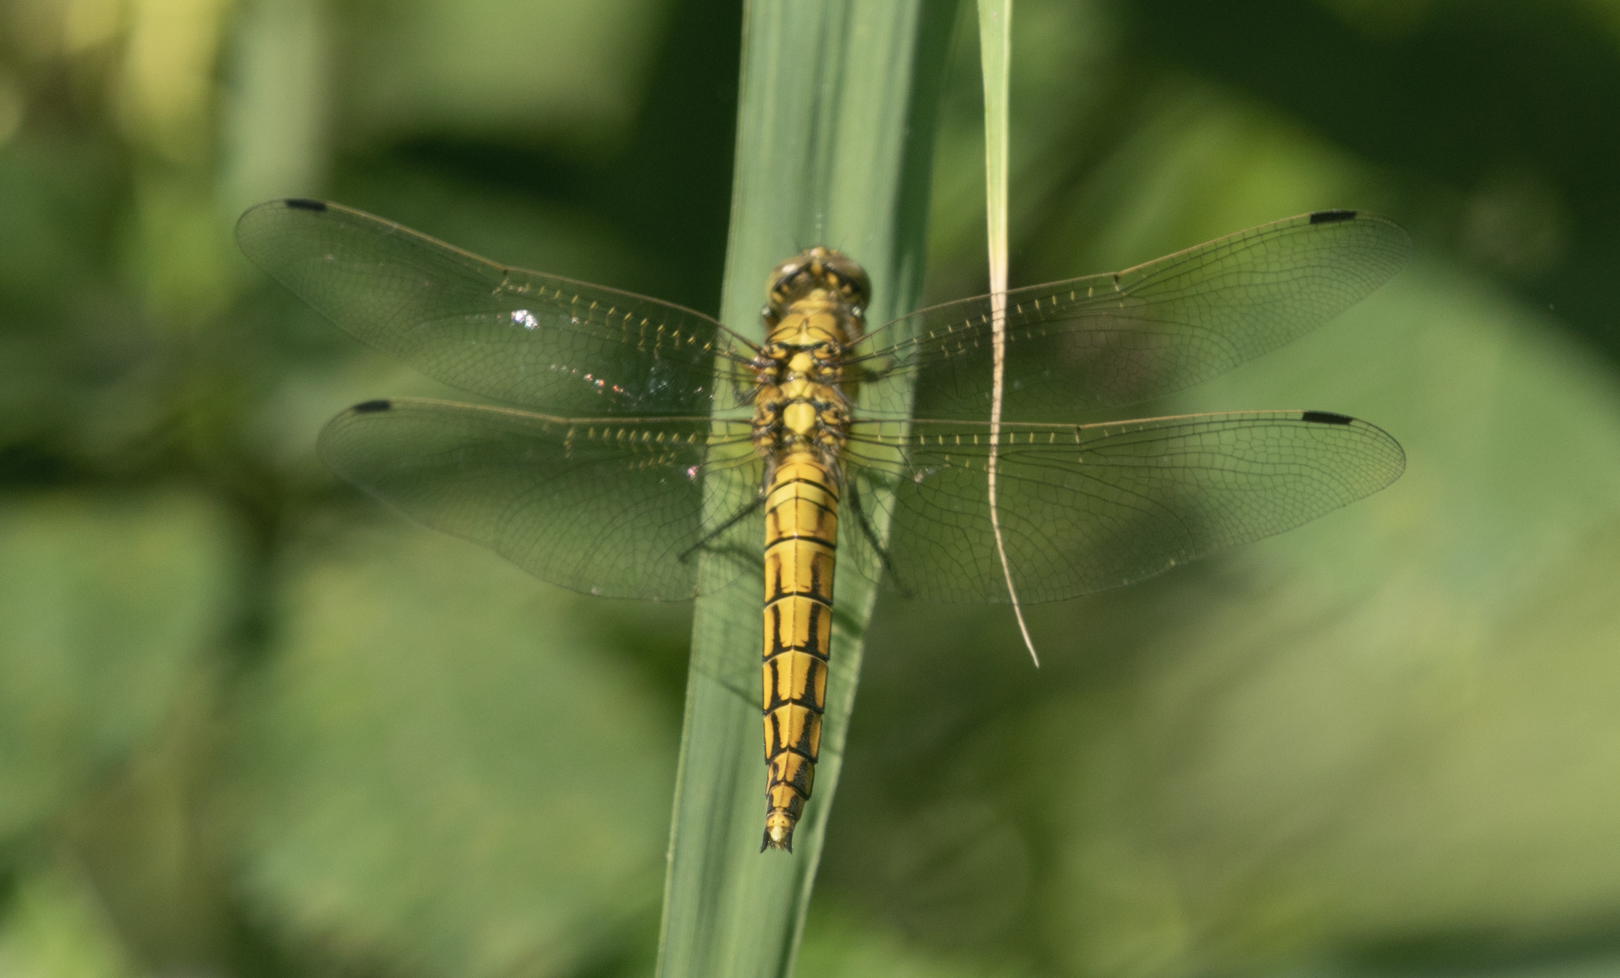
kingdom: Animalia
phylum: Arthropoda
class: Insecta
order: Odonata
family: Libellulidae
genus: Orthetrum
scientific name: Orthetrum cancellatum
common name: Black-tailed skimmer
